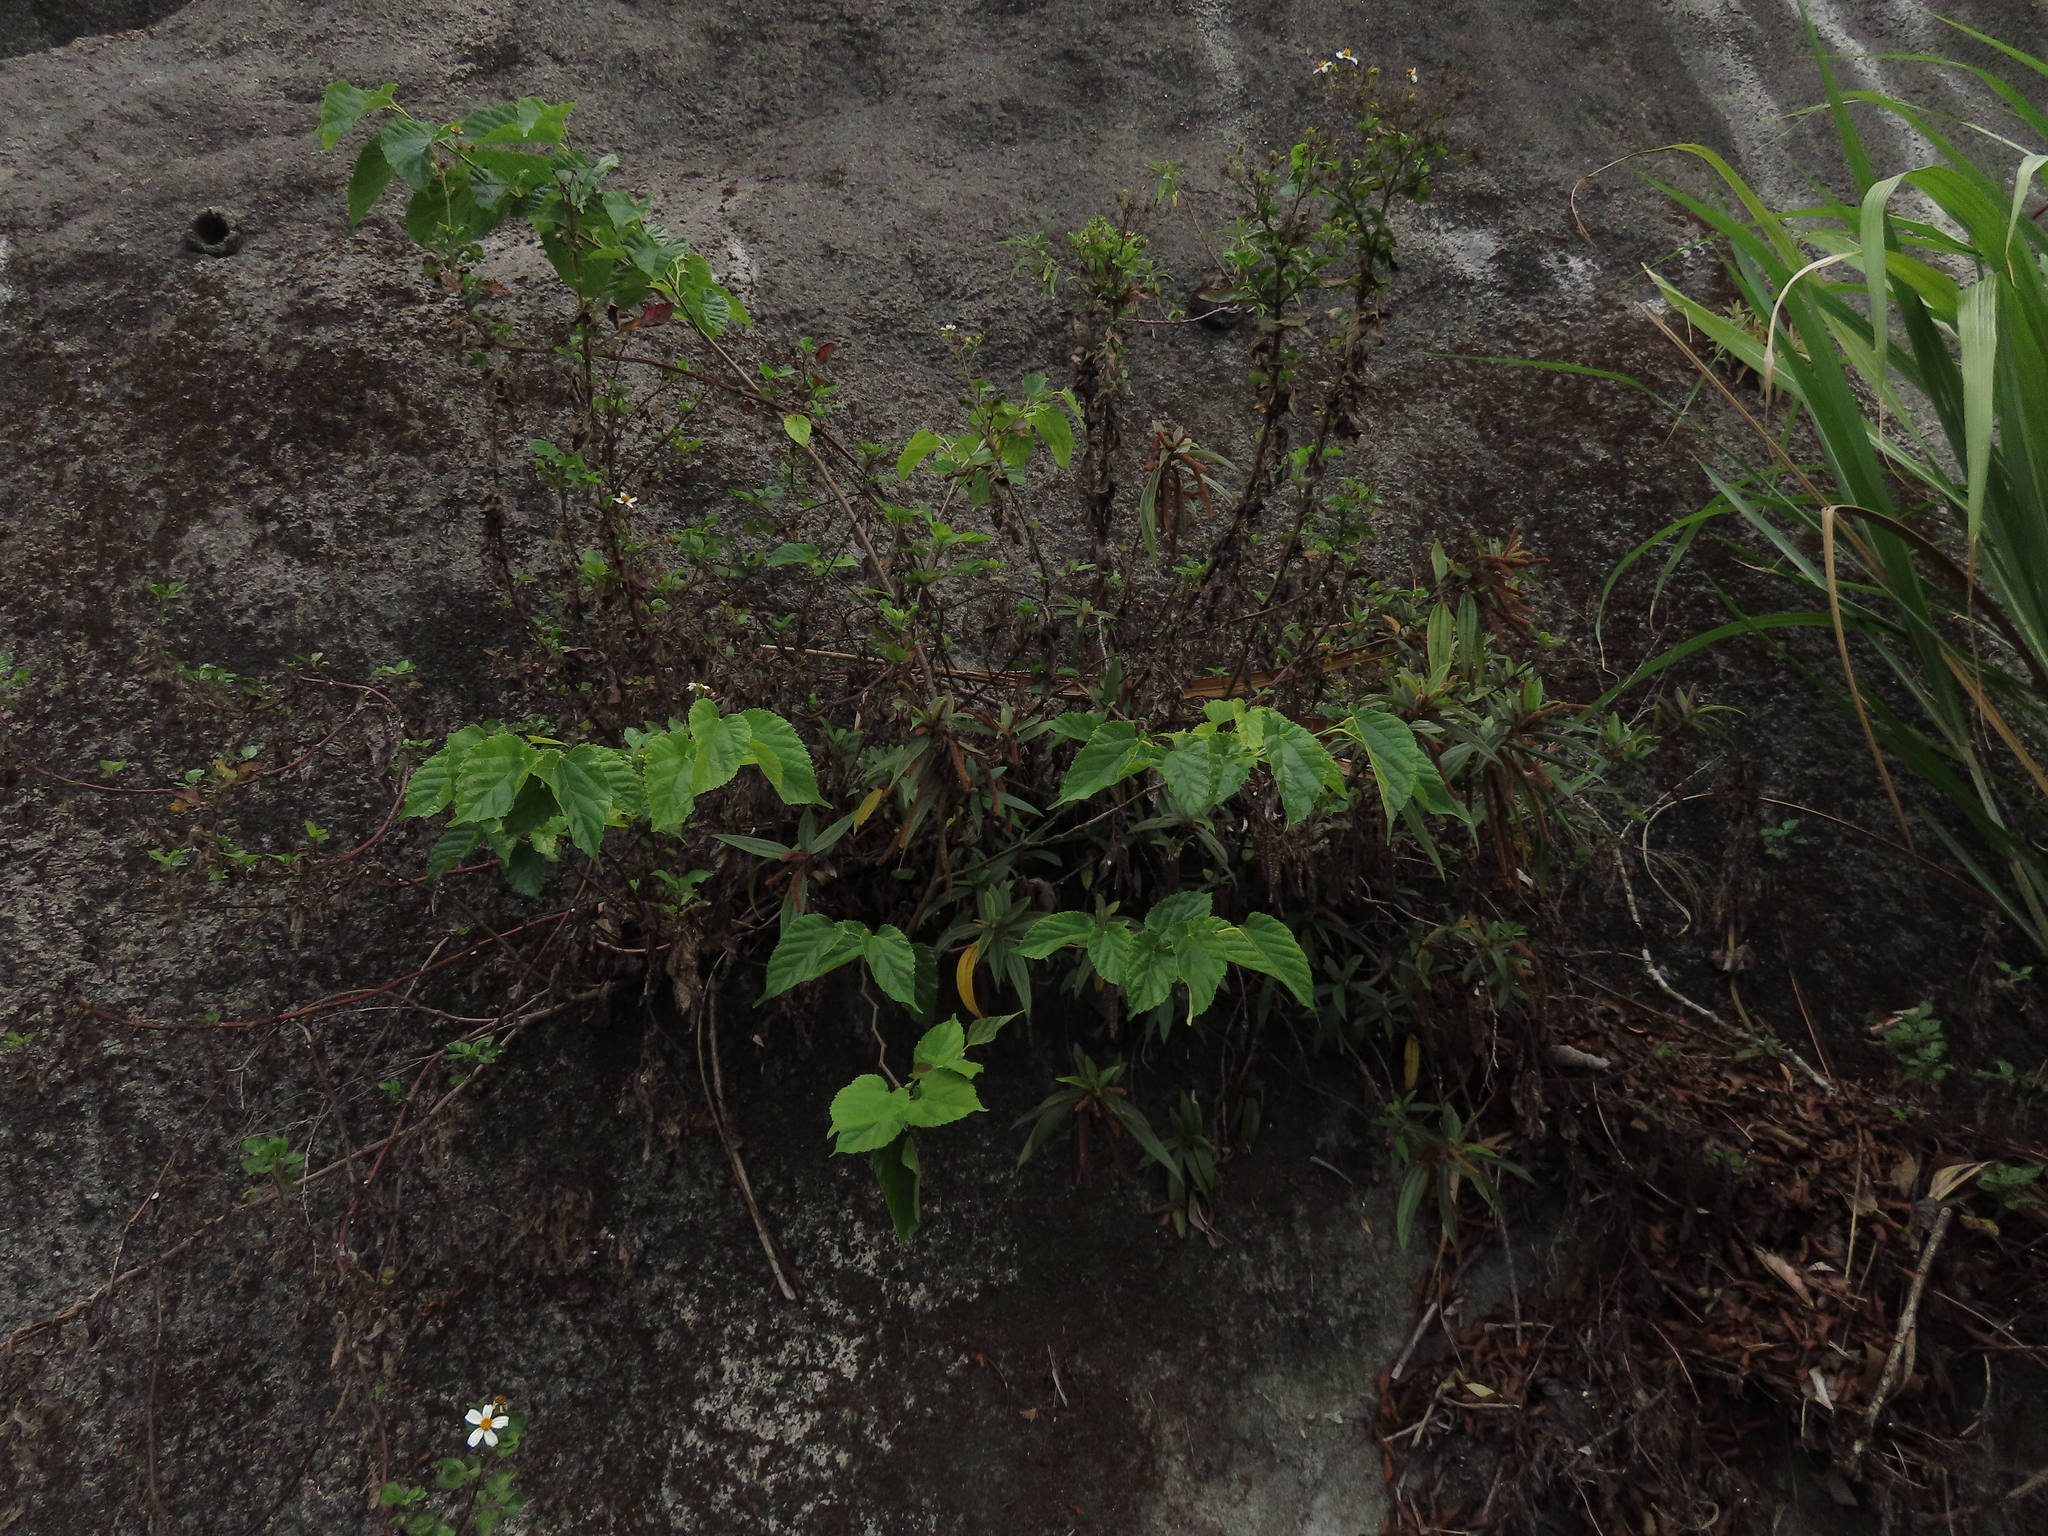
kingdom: Plantae
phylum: Tracheophyta
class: Magnoliopsida
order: Rosales
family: Moraceae
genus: Morus
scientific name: Morus indica
